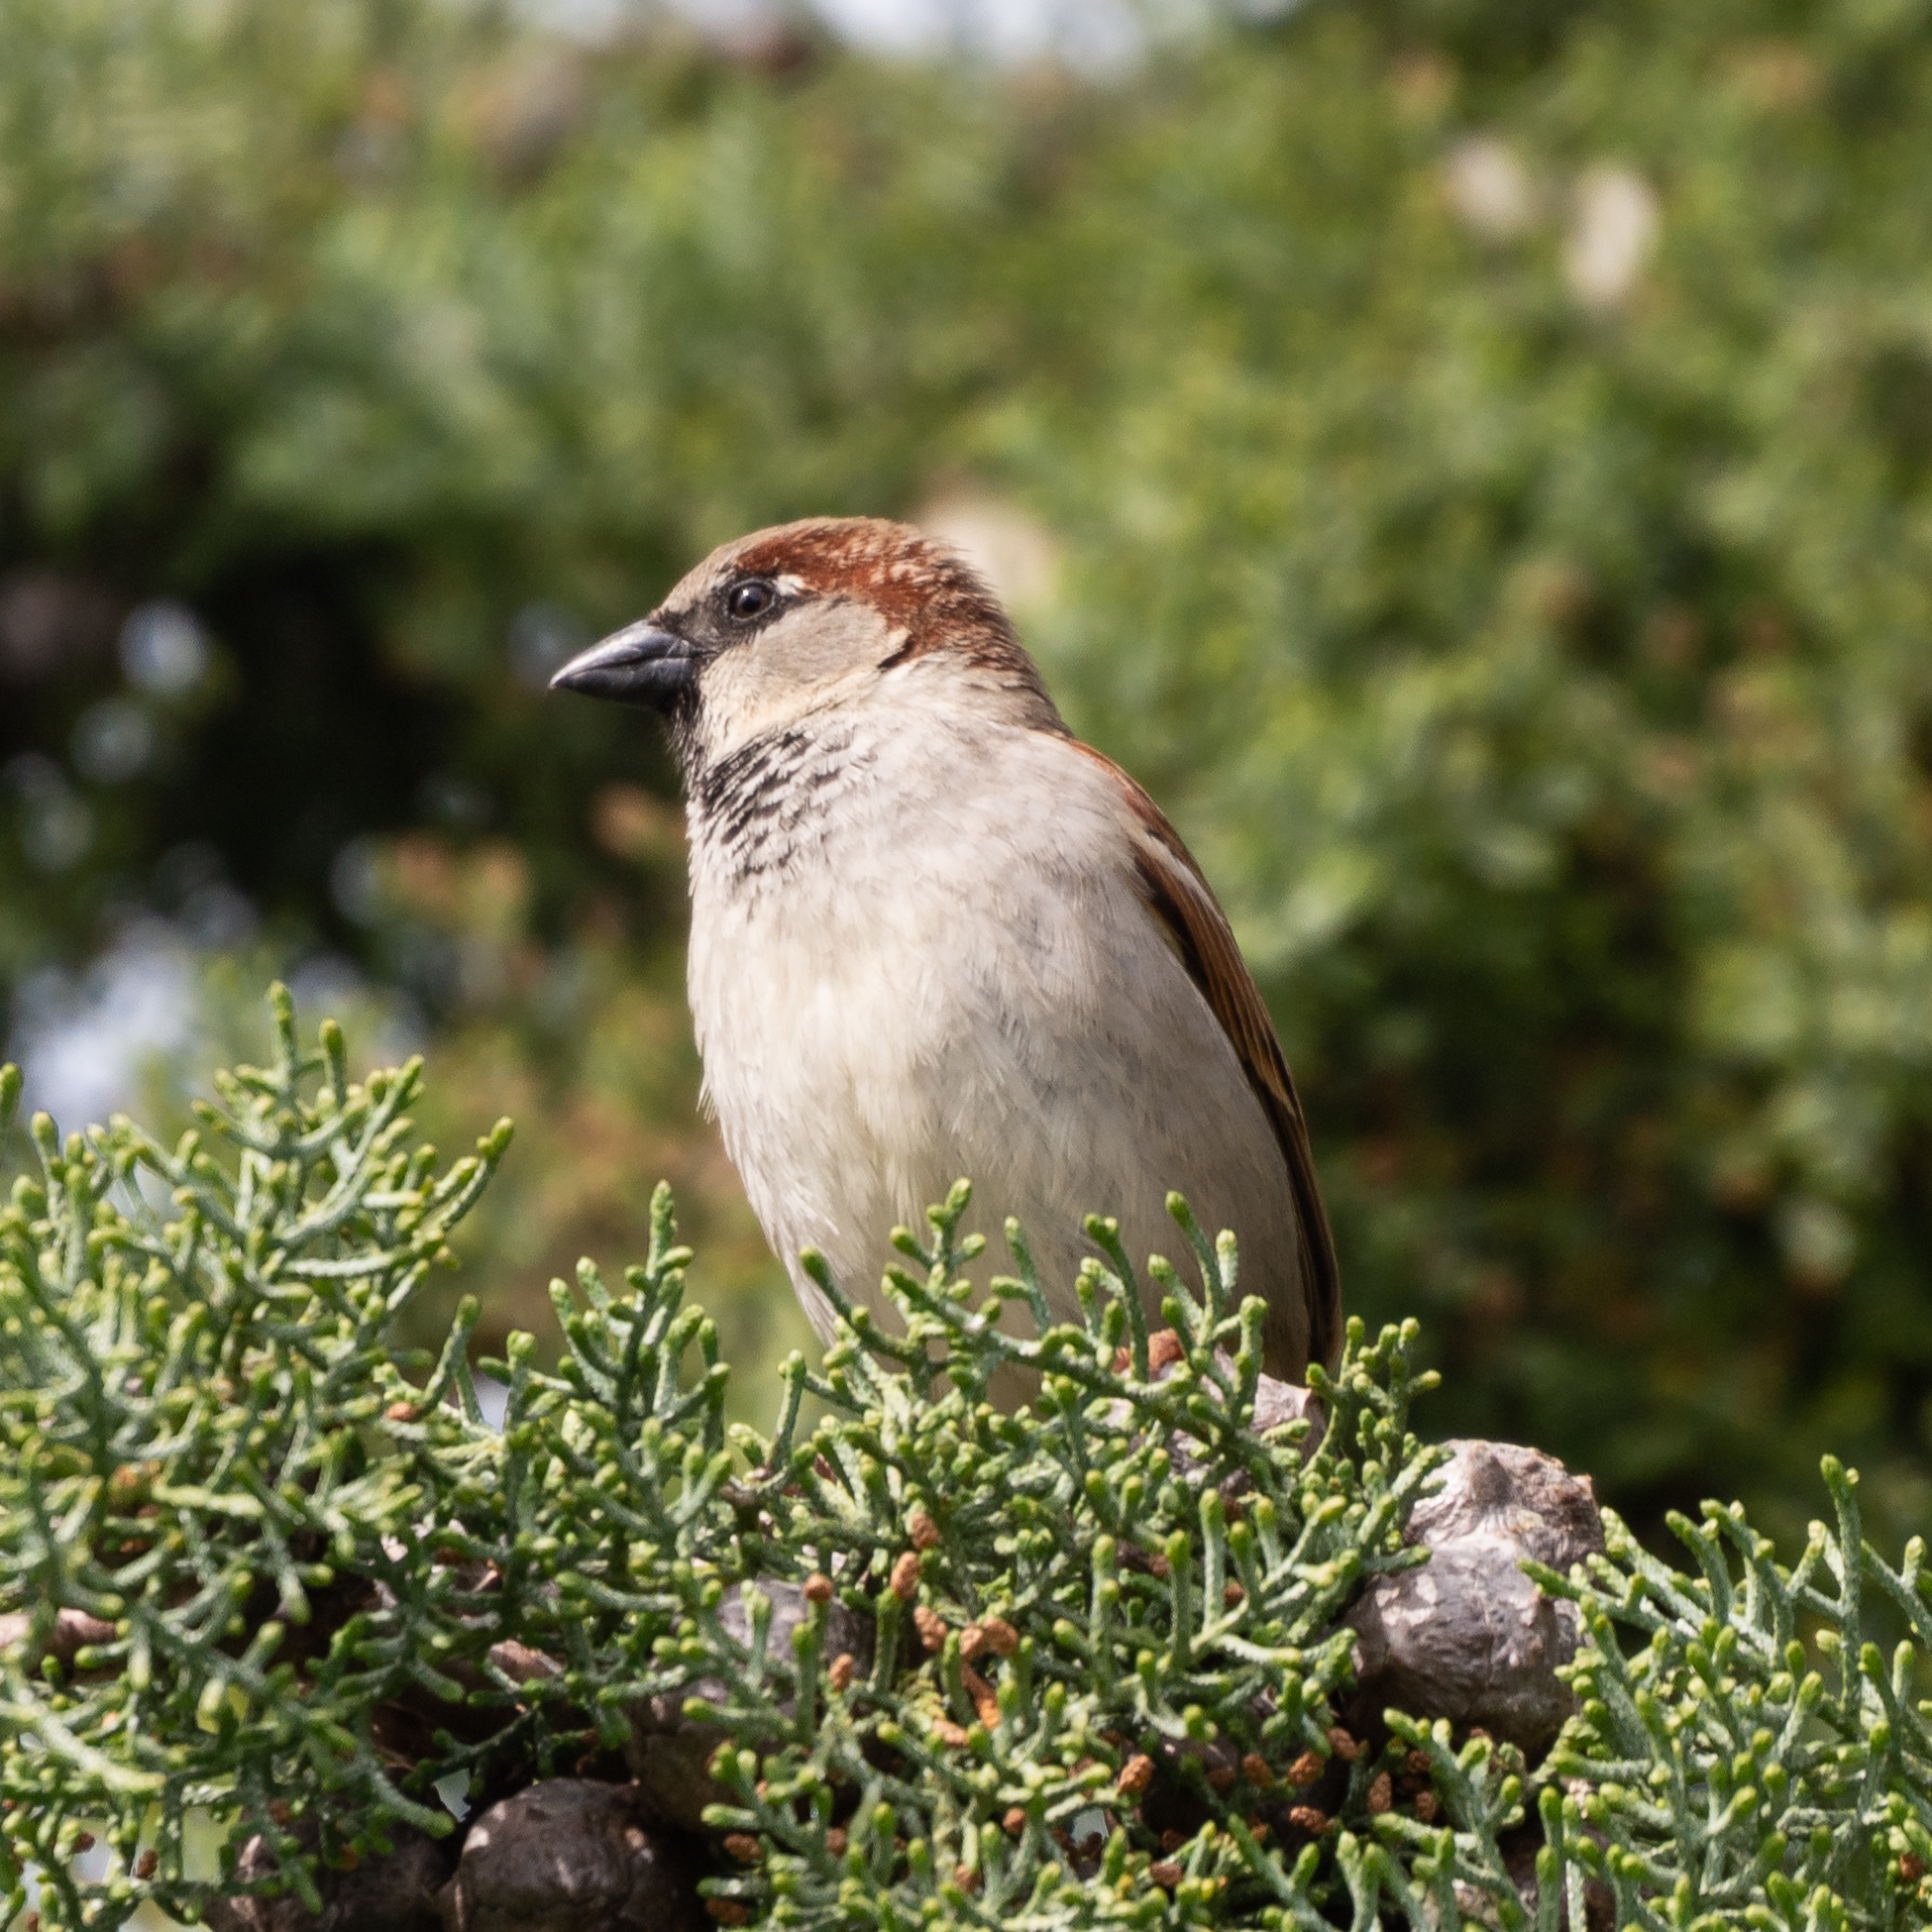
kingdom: Animalia
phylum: Chordata
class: Aves
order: Passeriformes
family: Passeridae
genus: Passer
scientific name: Passer domesticus
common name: House sparrow
